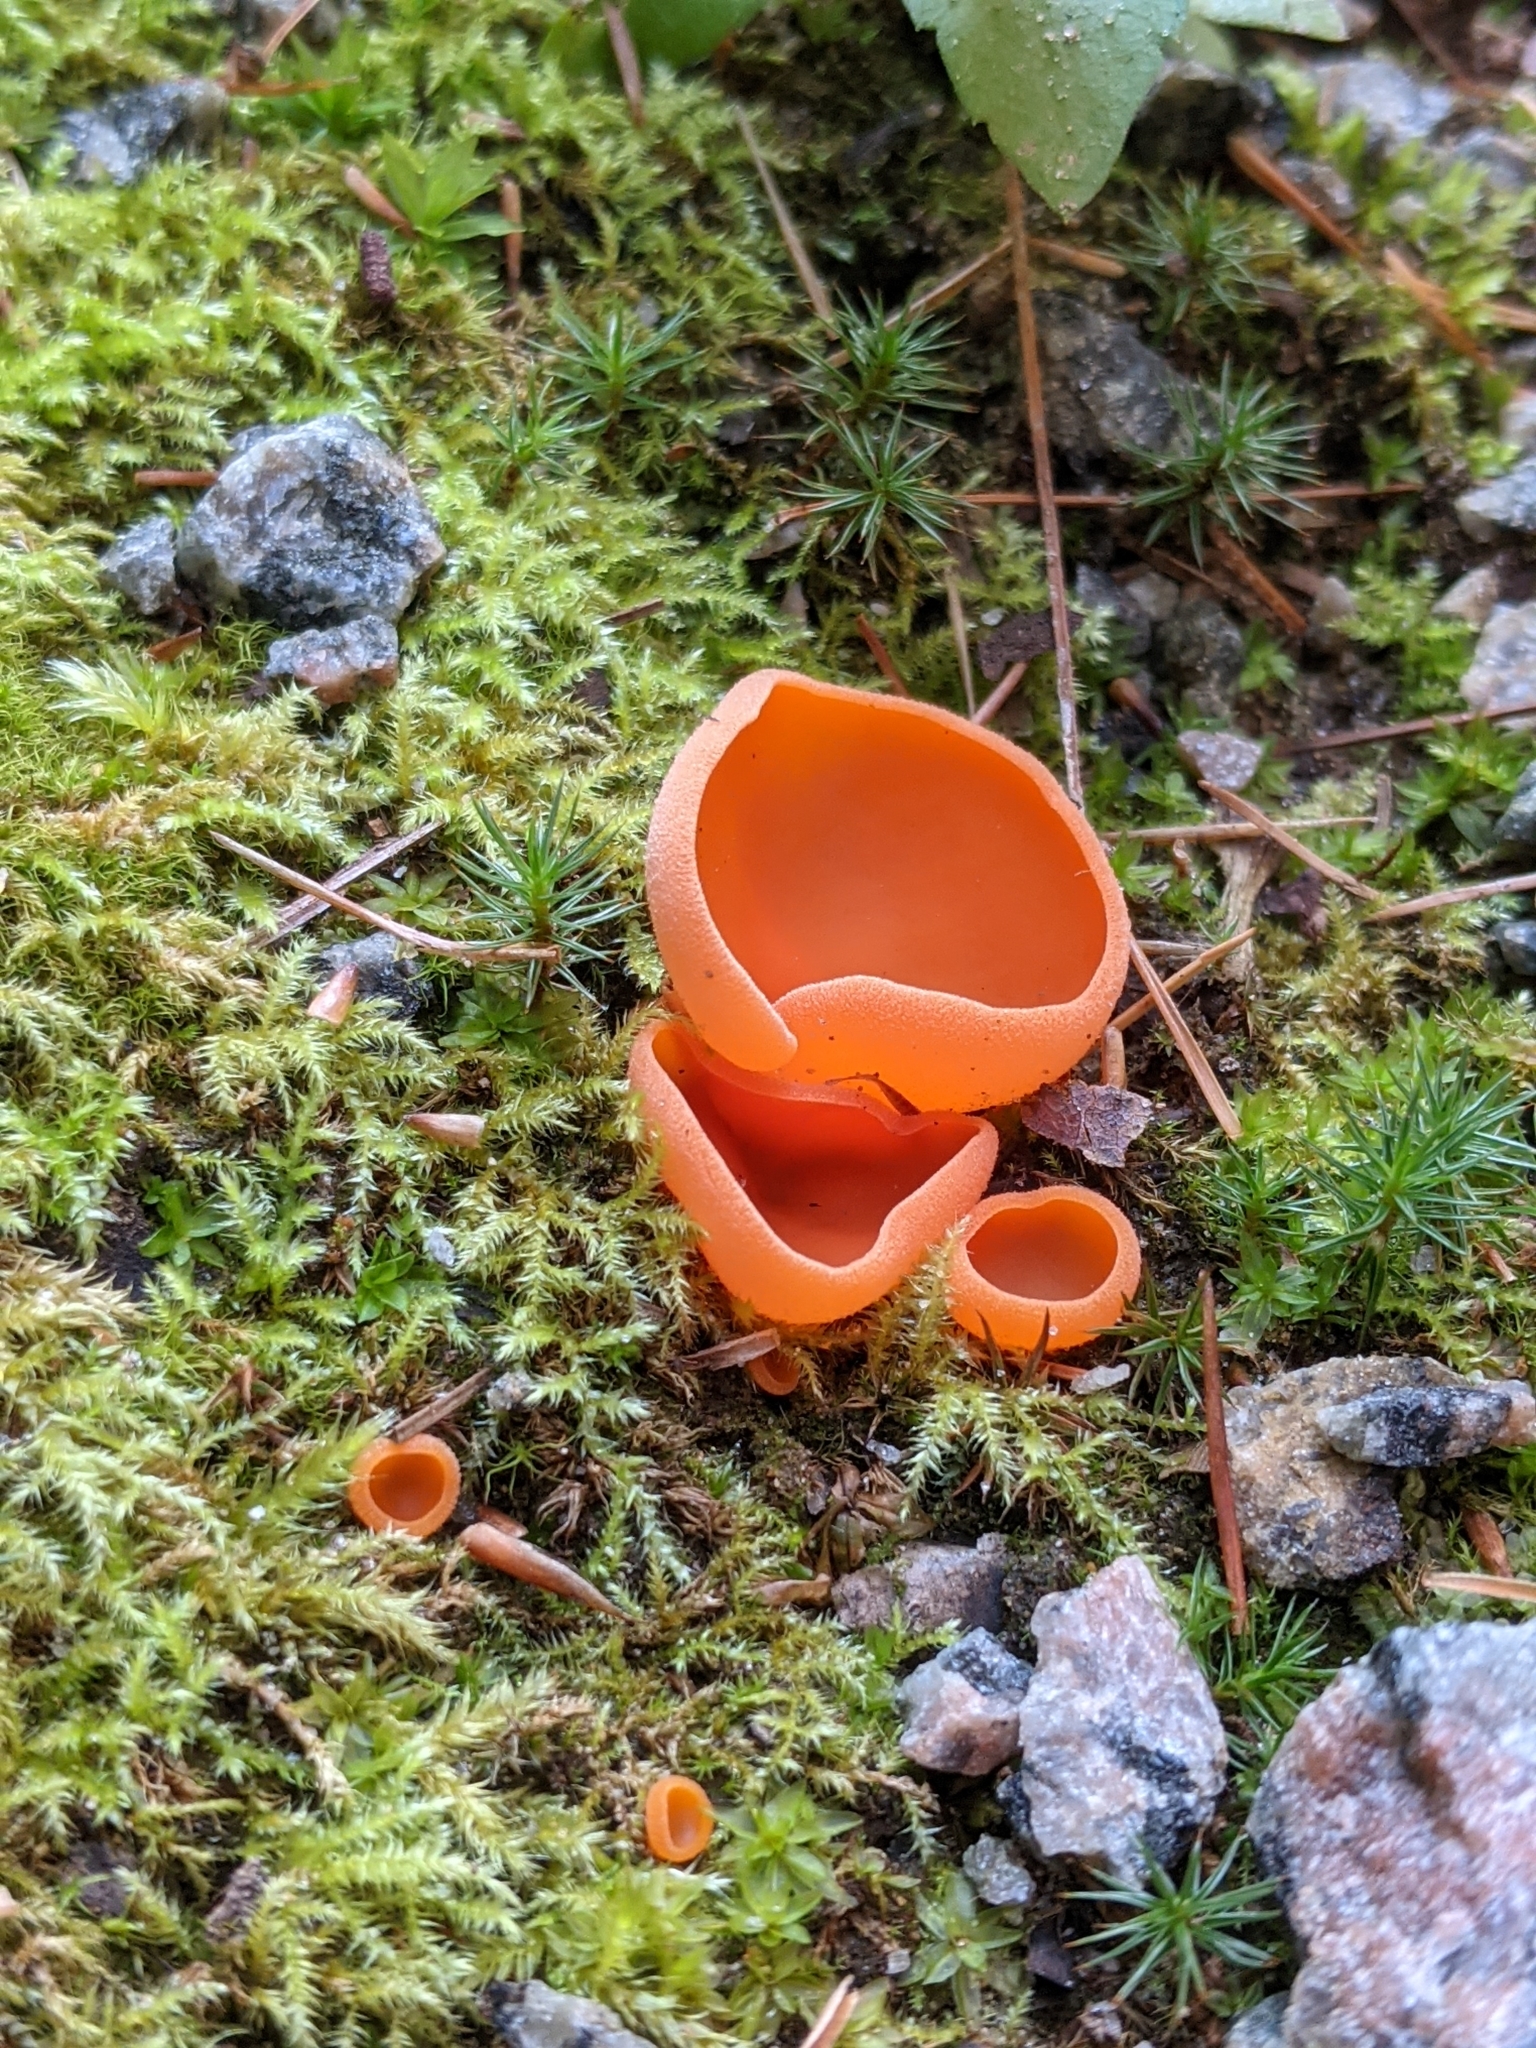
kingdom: Fungi
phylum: Ascomycota
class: Pezizomycetes
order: Pezizales
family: Pyronemataceae
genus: Aleuria
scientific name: Aleuria aurantia
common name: Orange peel fungus
